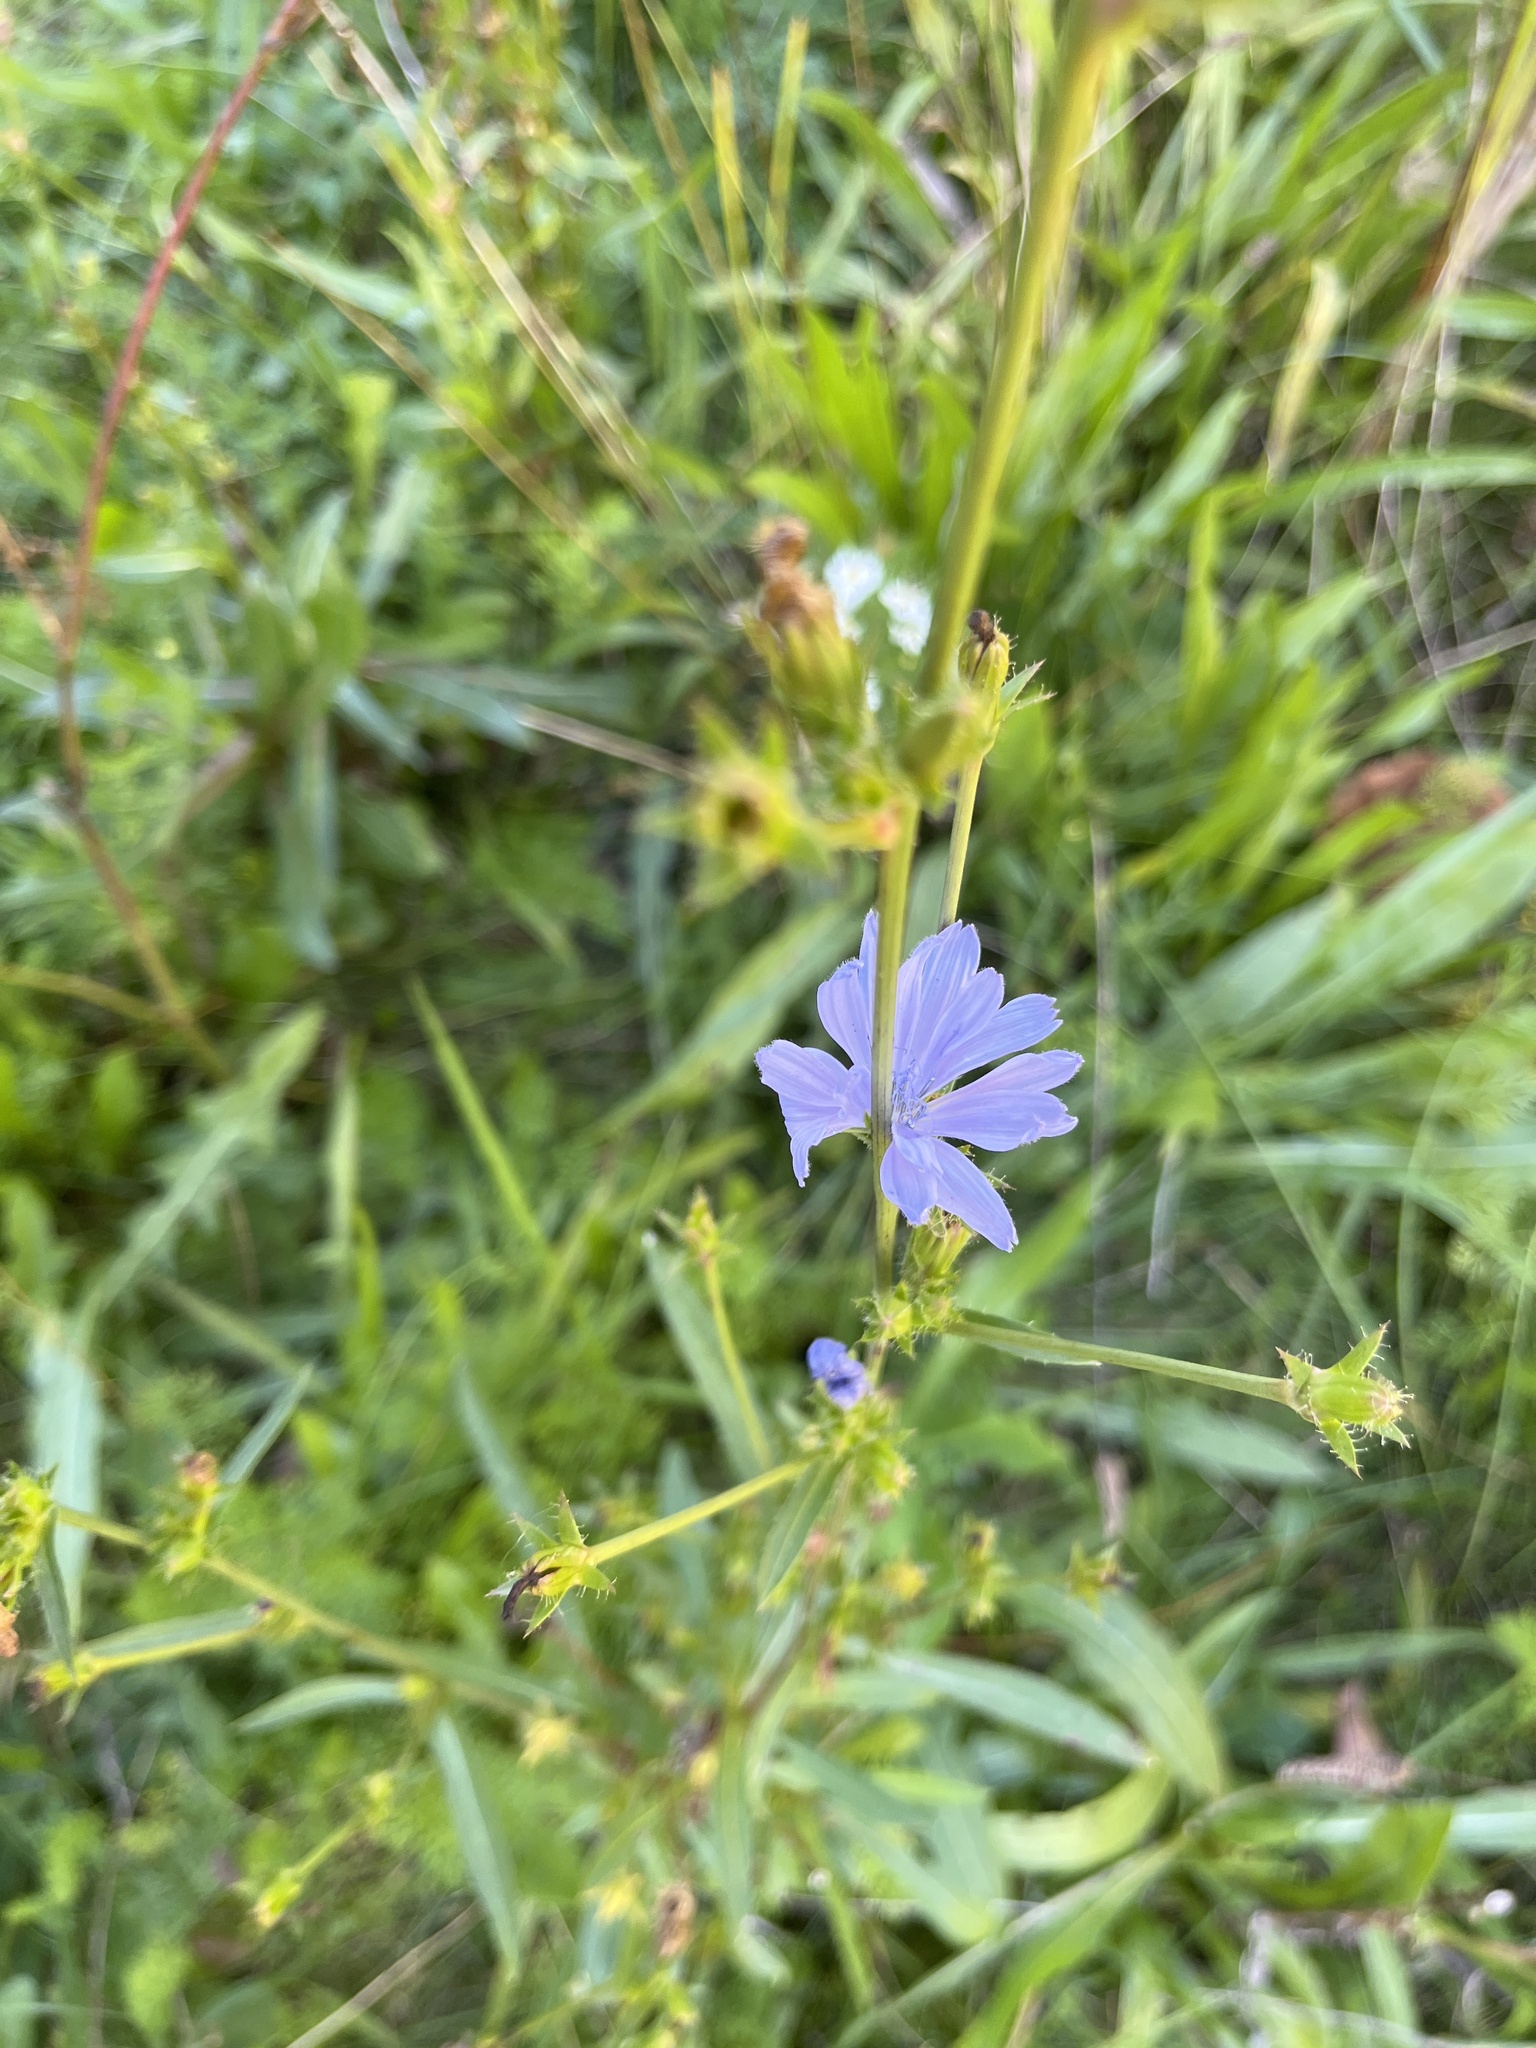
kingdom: Plantae
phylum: Tracheophyta
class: Magnoliopsida
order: Asterales
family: Asteraceae
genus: Cichorium
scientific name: Cichorium intybus
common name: Chicory
